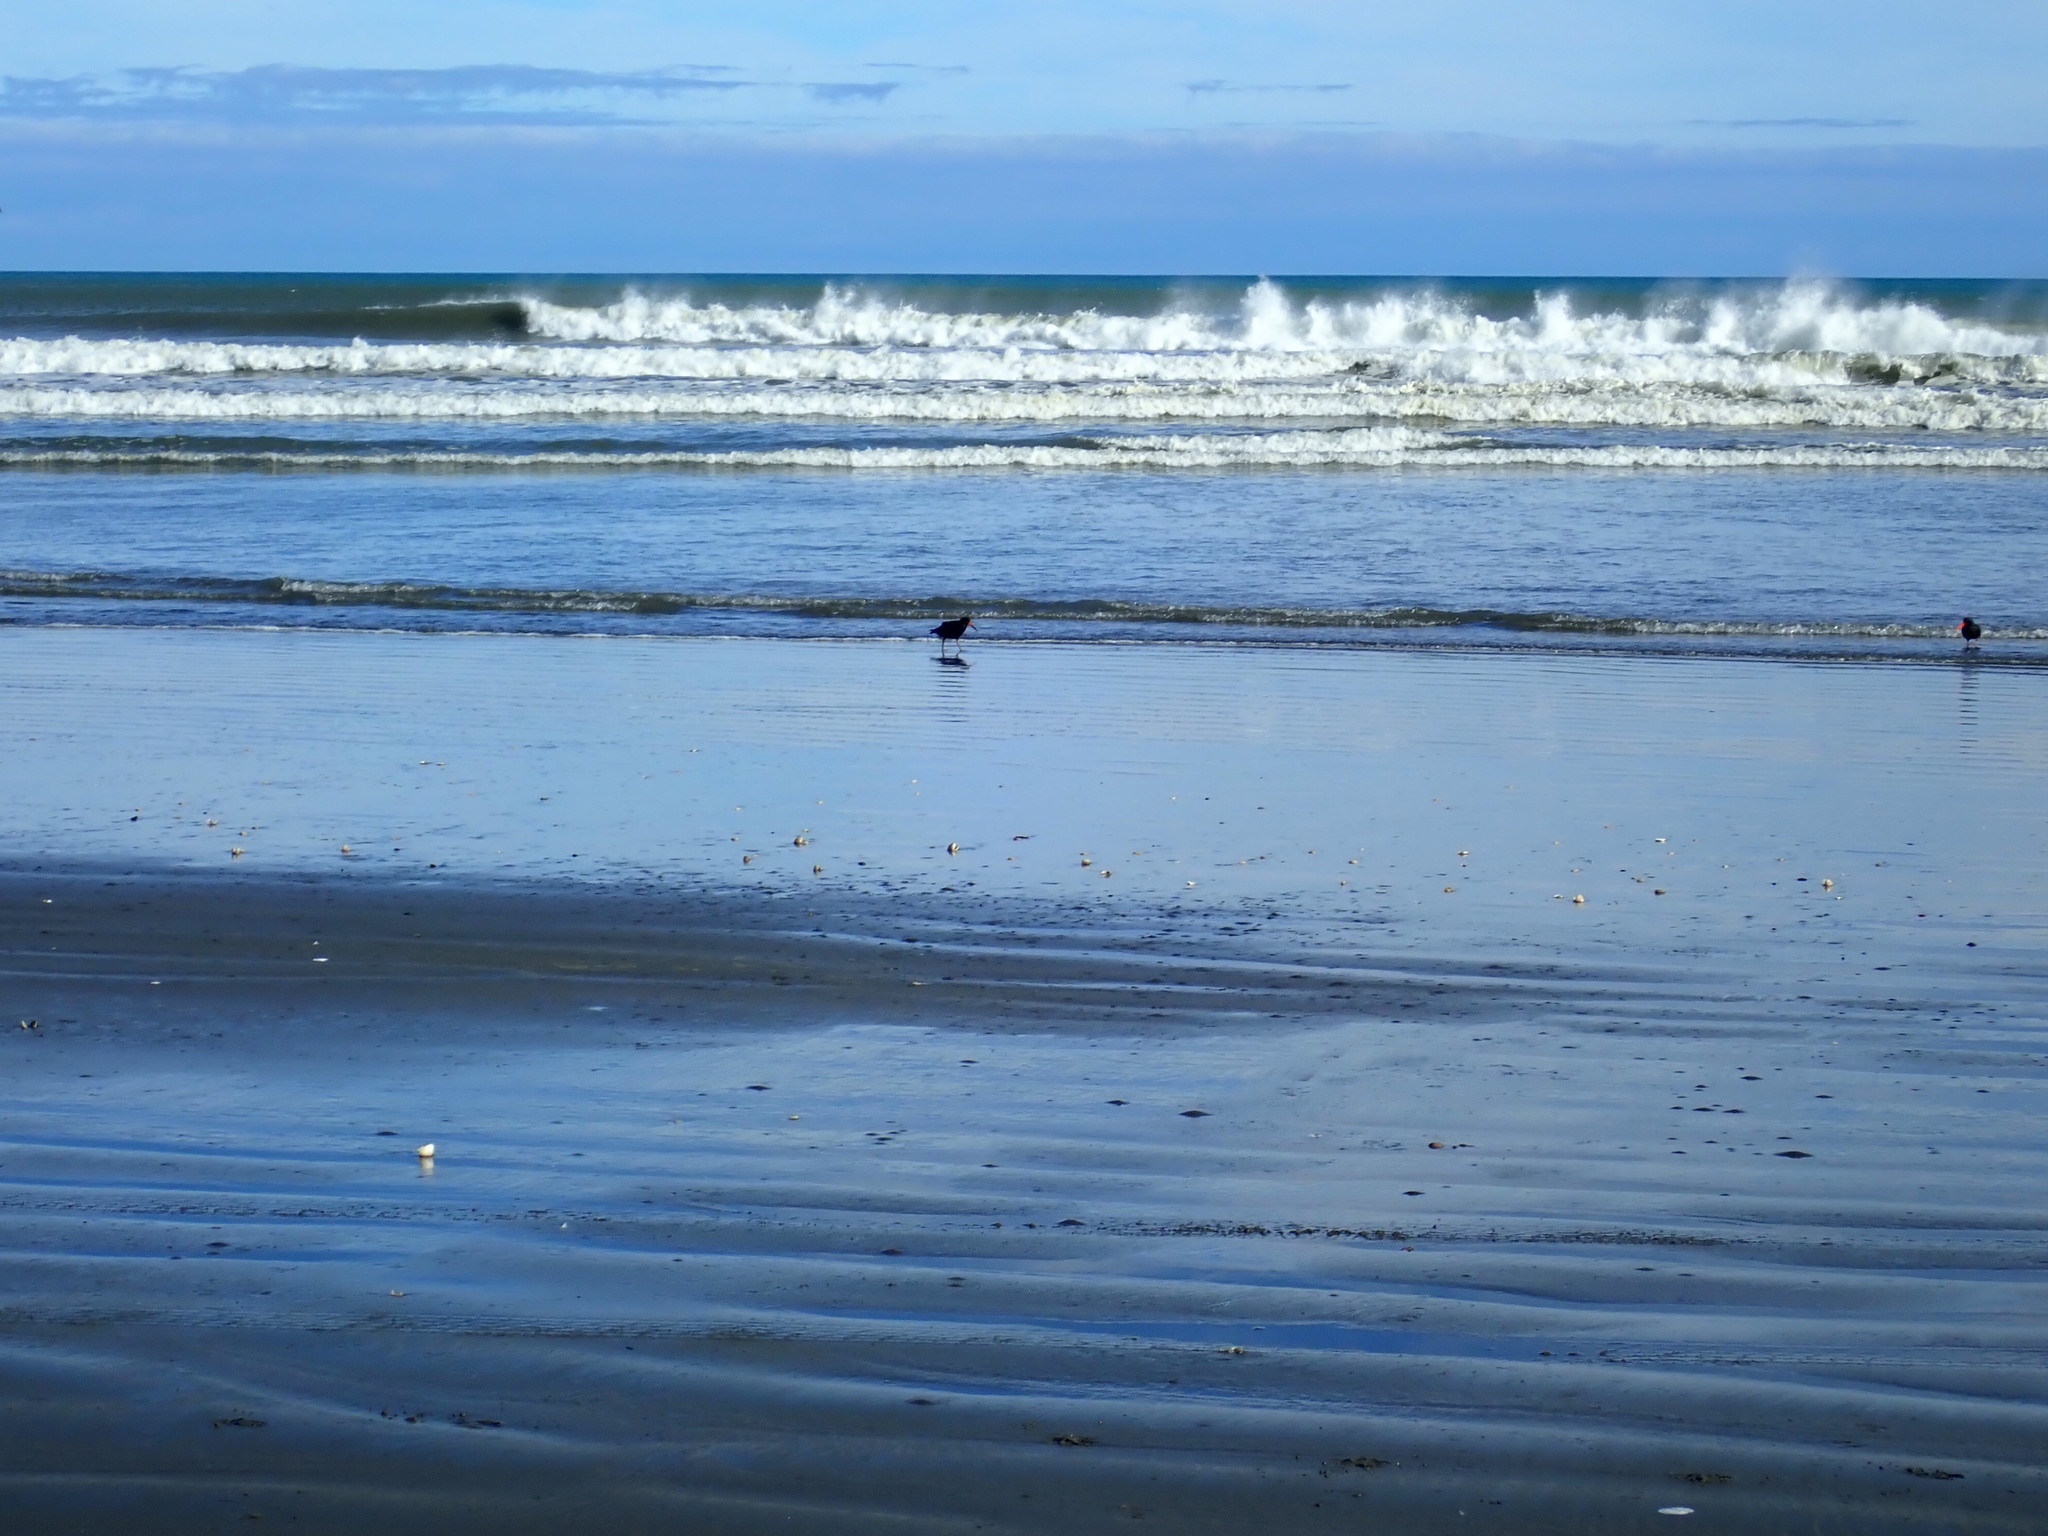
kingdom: Animalia
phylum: Chordata
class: Aves
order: Charadriiformes
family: Haematopodidae
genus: Haematopus
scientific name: Haematopus unicolor
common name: Variable oystercatcher
